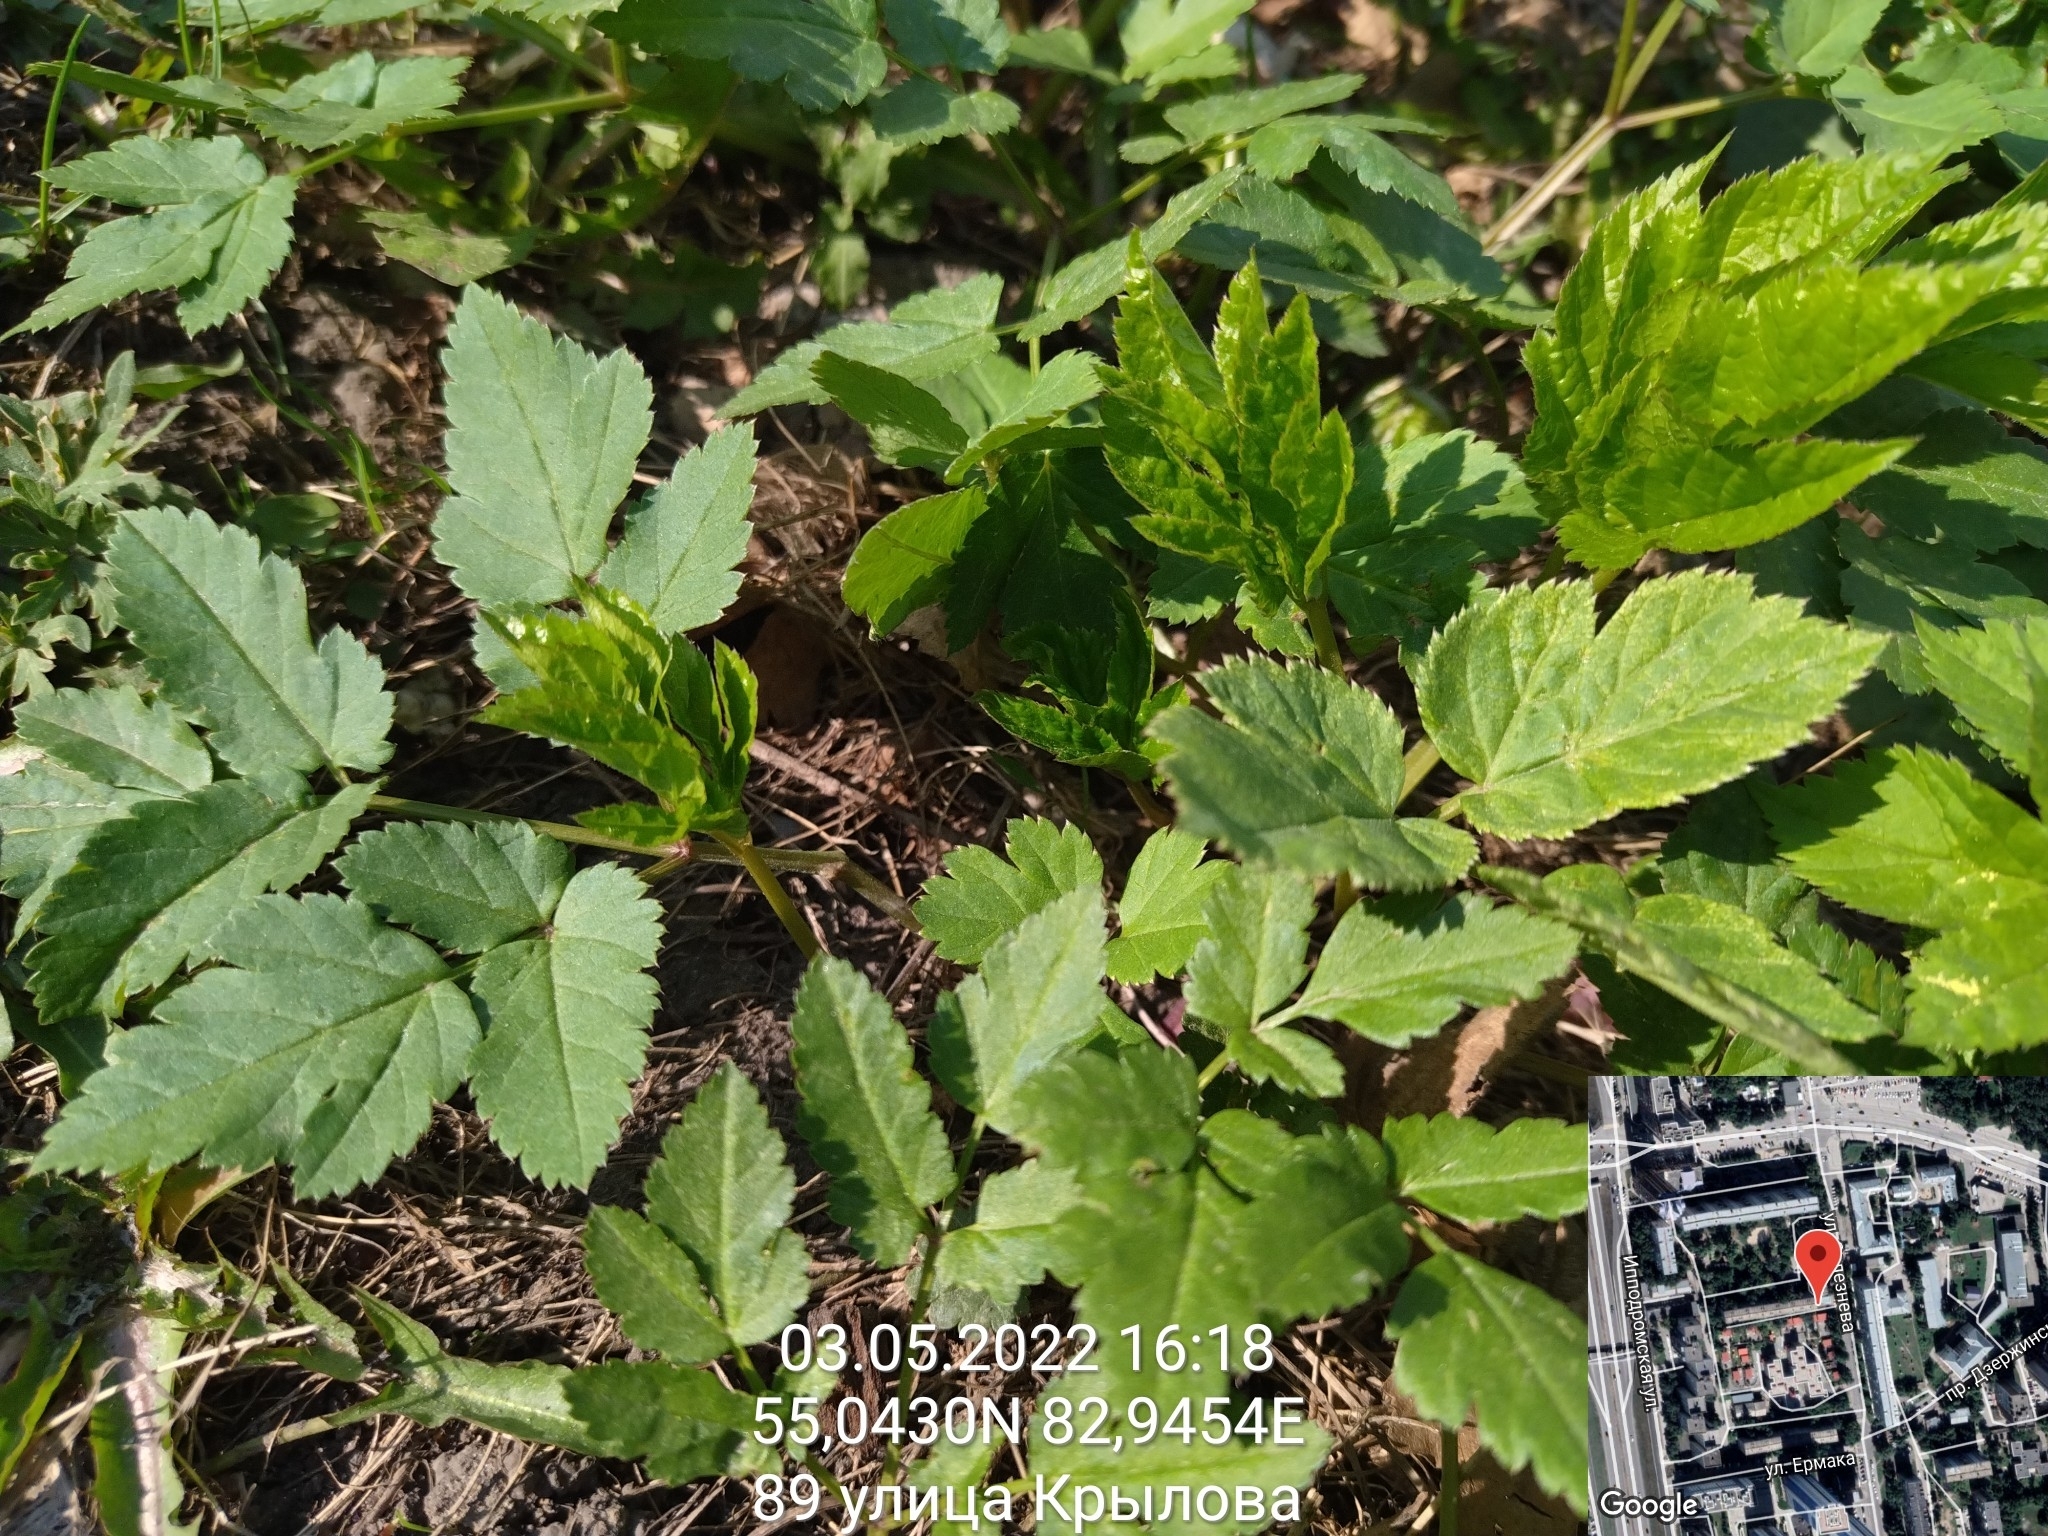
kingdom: Plantae
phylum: Tracheophyta
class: Magnoliopsida
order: Apiales
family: Apiaceae
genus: Aegopodium
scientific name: Aegopodium podagraria
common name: Ground-elder
